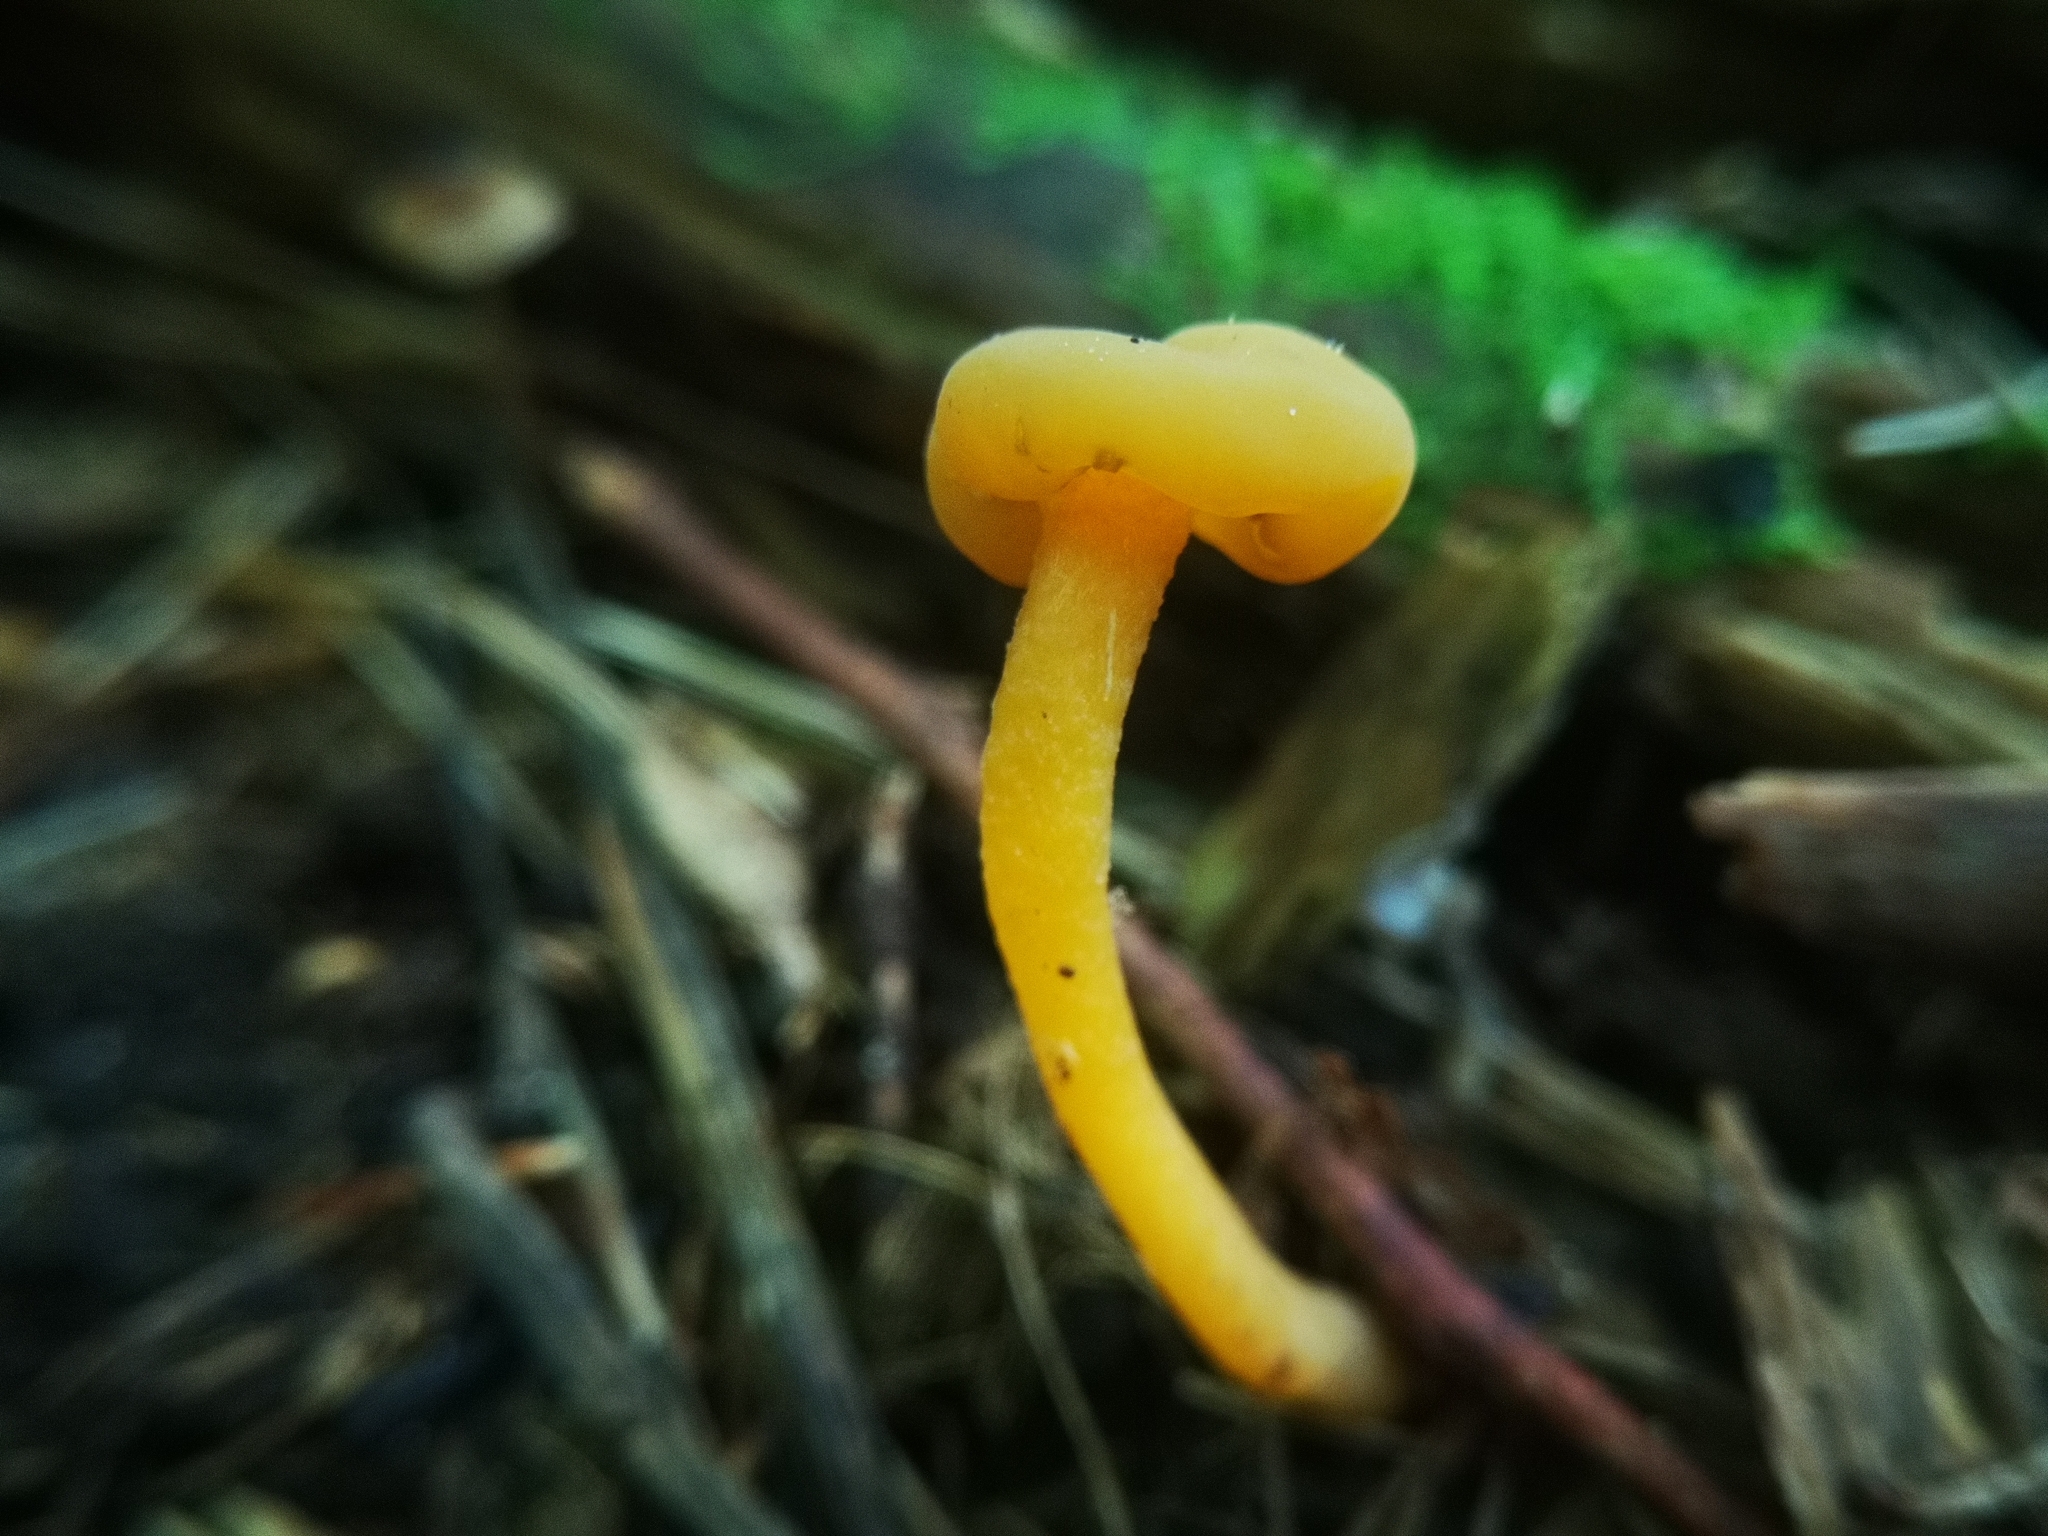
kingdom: Fungi
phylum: Ascomycota
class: Leotiomycetes
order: Leotiales
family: Leotiaceae
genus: Leotia
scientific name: Leotia lubrica
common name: Jellybaby
